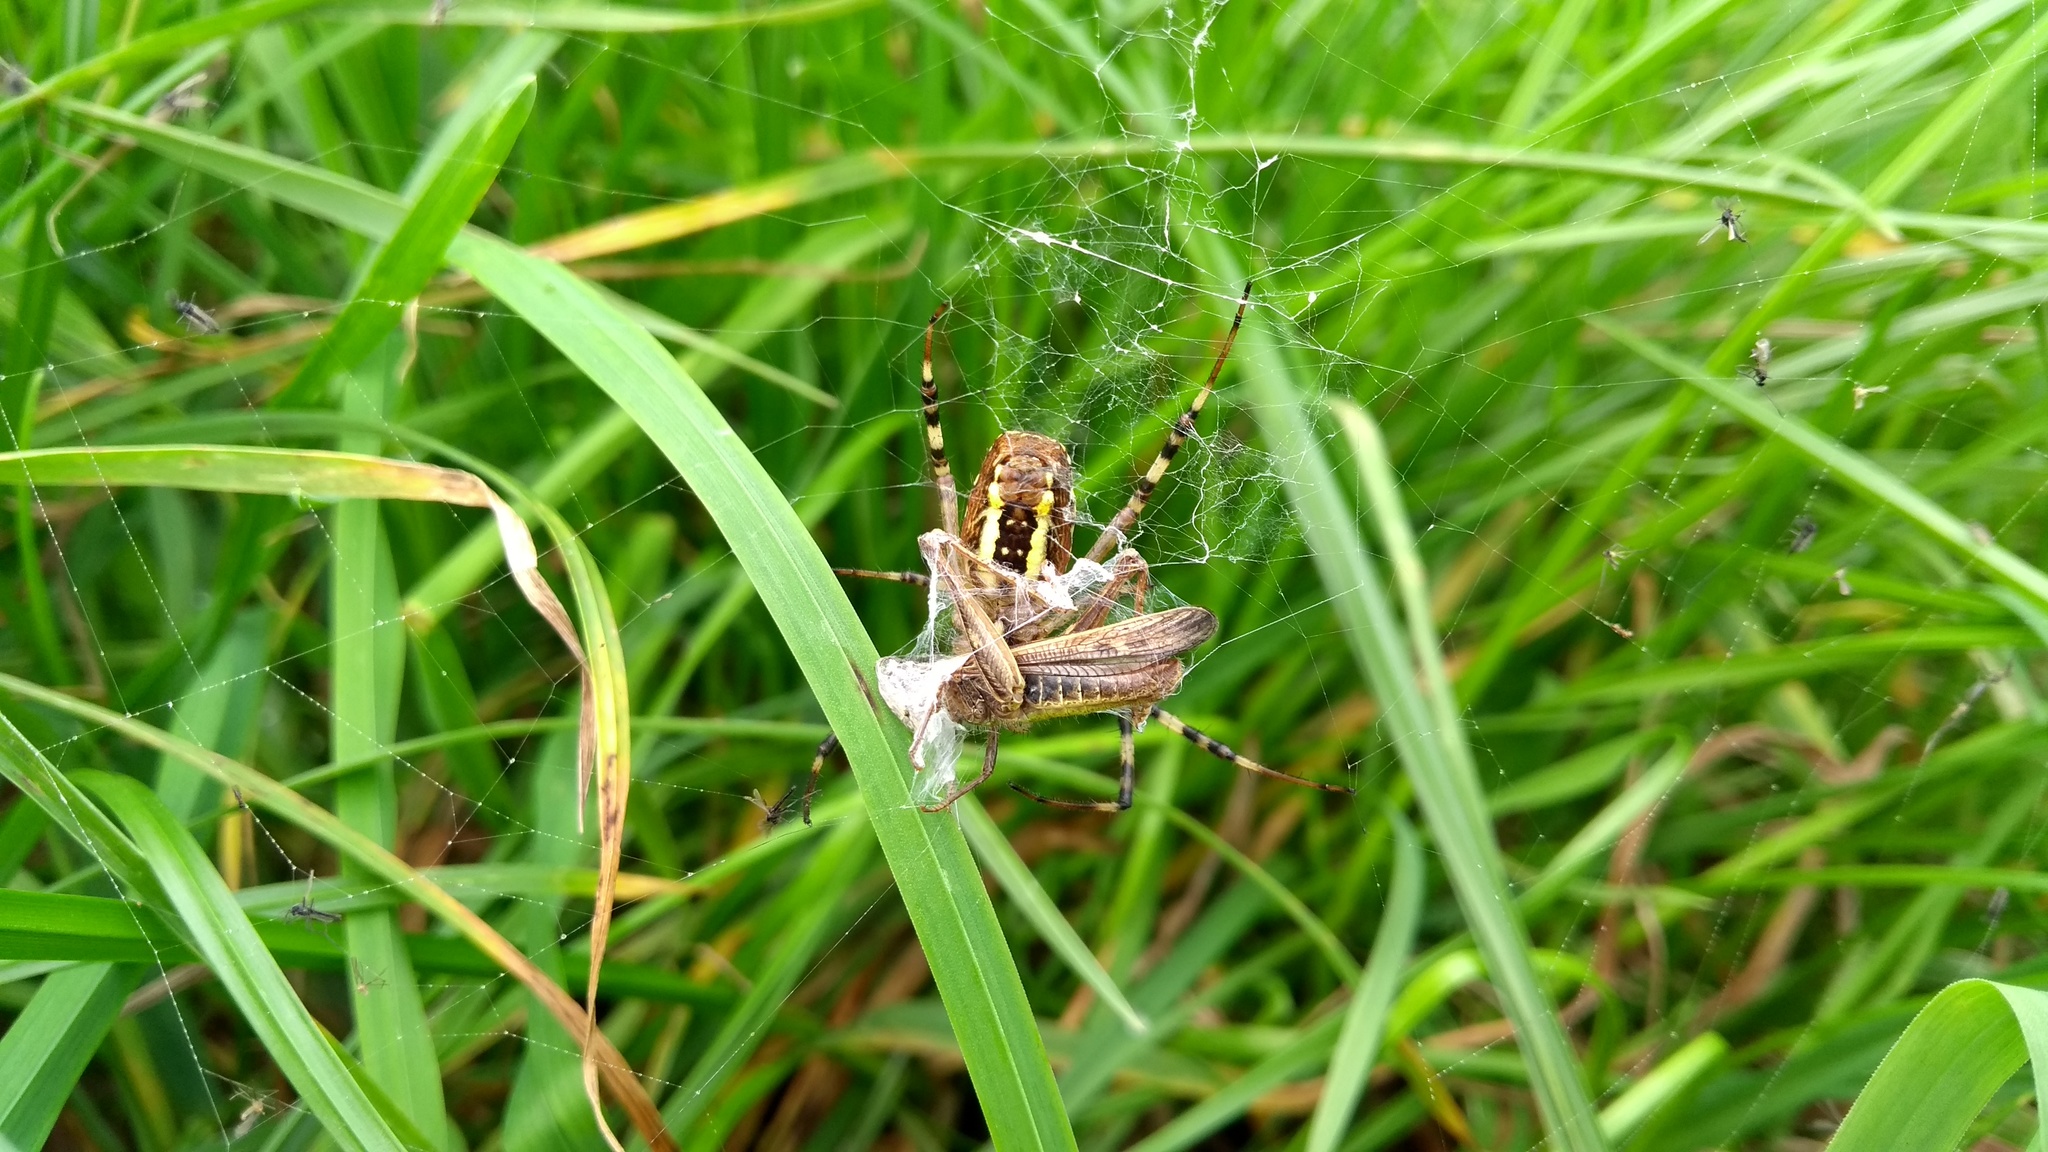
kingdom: Animalia
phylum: Arthropoda
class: Arachnida
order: Araneae
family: Araneidae
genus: Argiope
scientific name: Argiope bruennichi
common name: Wasp spider
